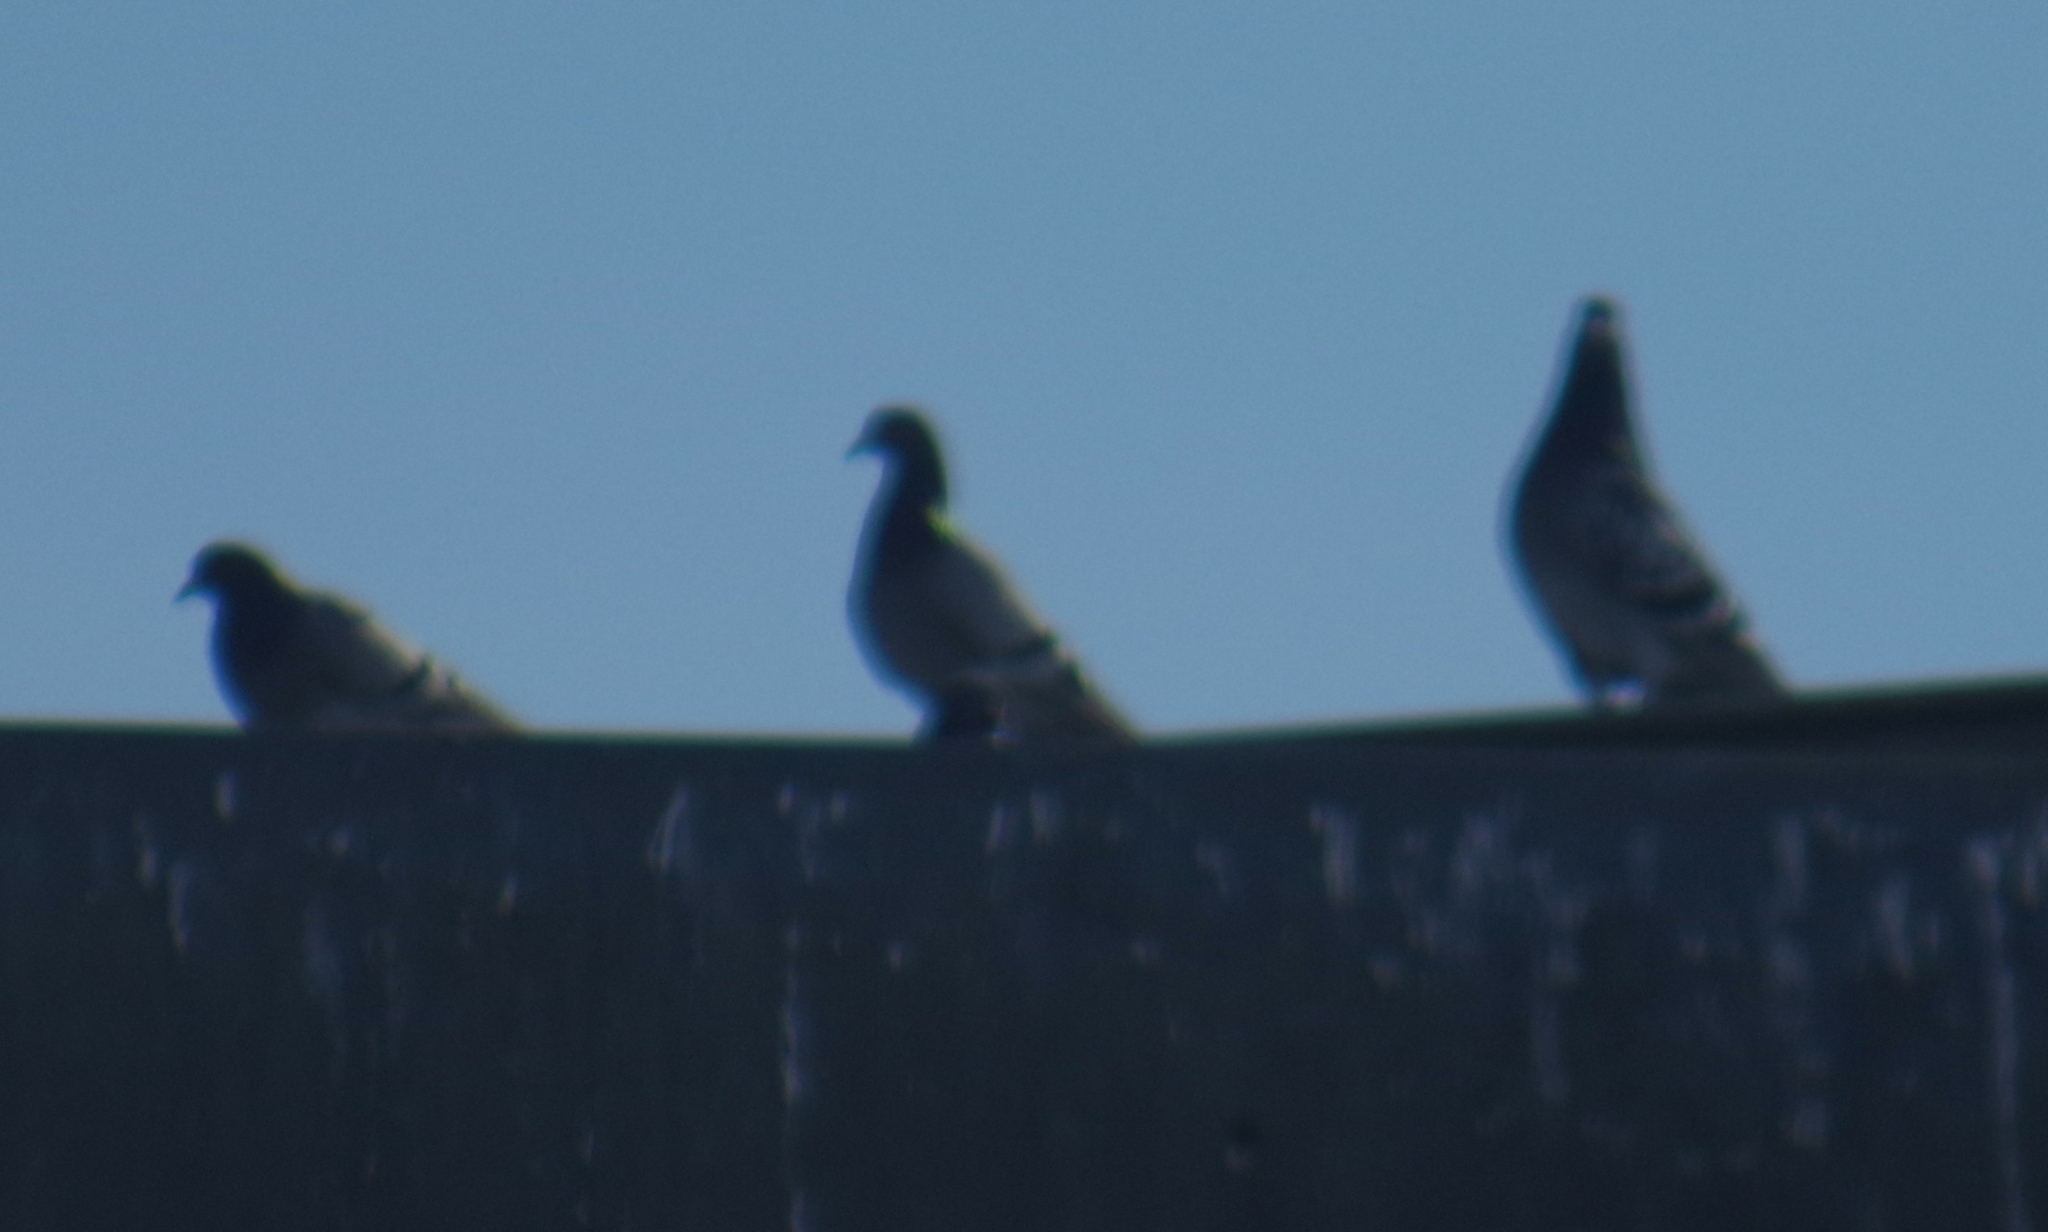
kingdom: Animalia
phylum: Chordata
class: Aves
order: Columbiformes
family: Columbidae
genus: Columba
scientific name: Columba livia
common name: Rock pigeon
